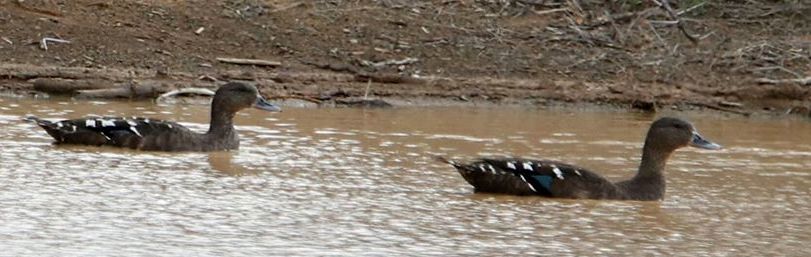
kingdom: Animalia
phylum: Chordata
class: Aves
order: Anseriformes
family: Anatidae
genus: Anas
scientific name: Anas sparsa
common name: African black duck
